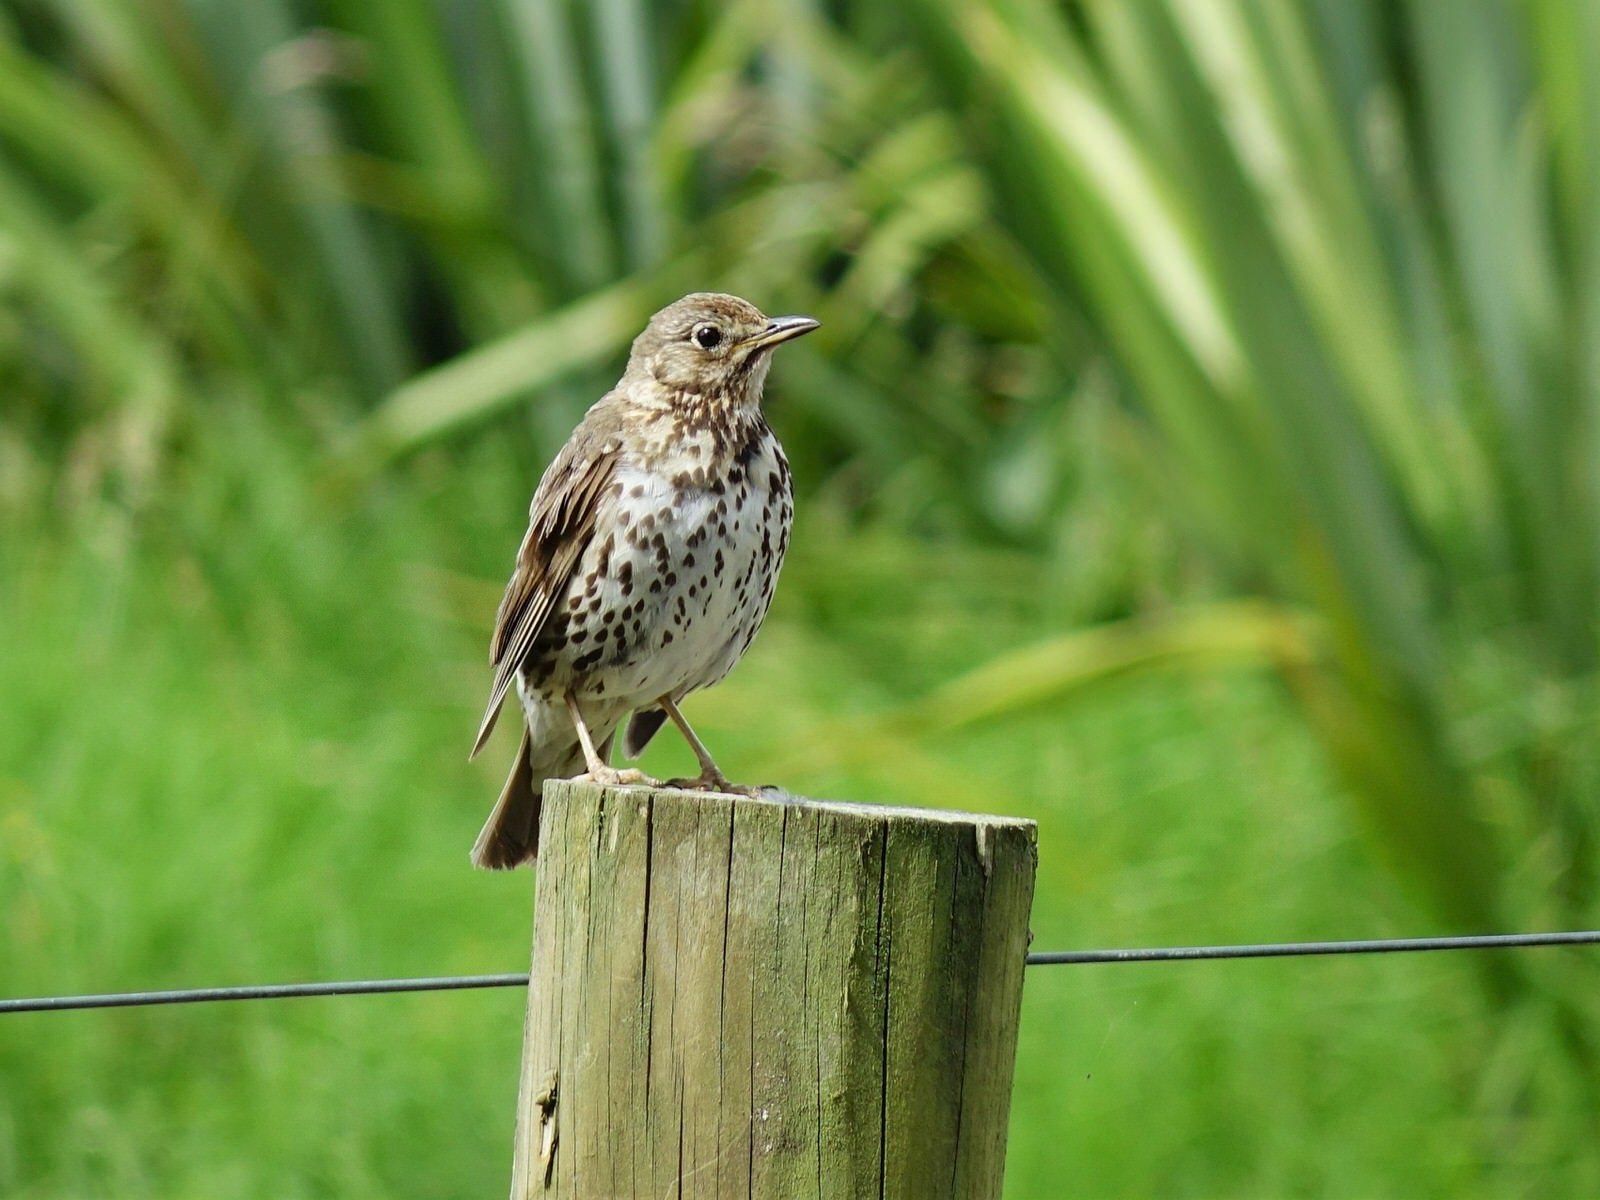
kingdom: Animalia
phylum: Chordata
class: Aves
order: Passeriformes
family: Turdidae
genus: Turdus
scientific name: Turdus philomelos
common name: Song thrush
